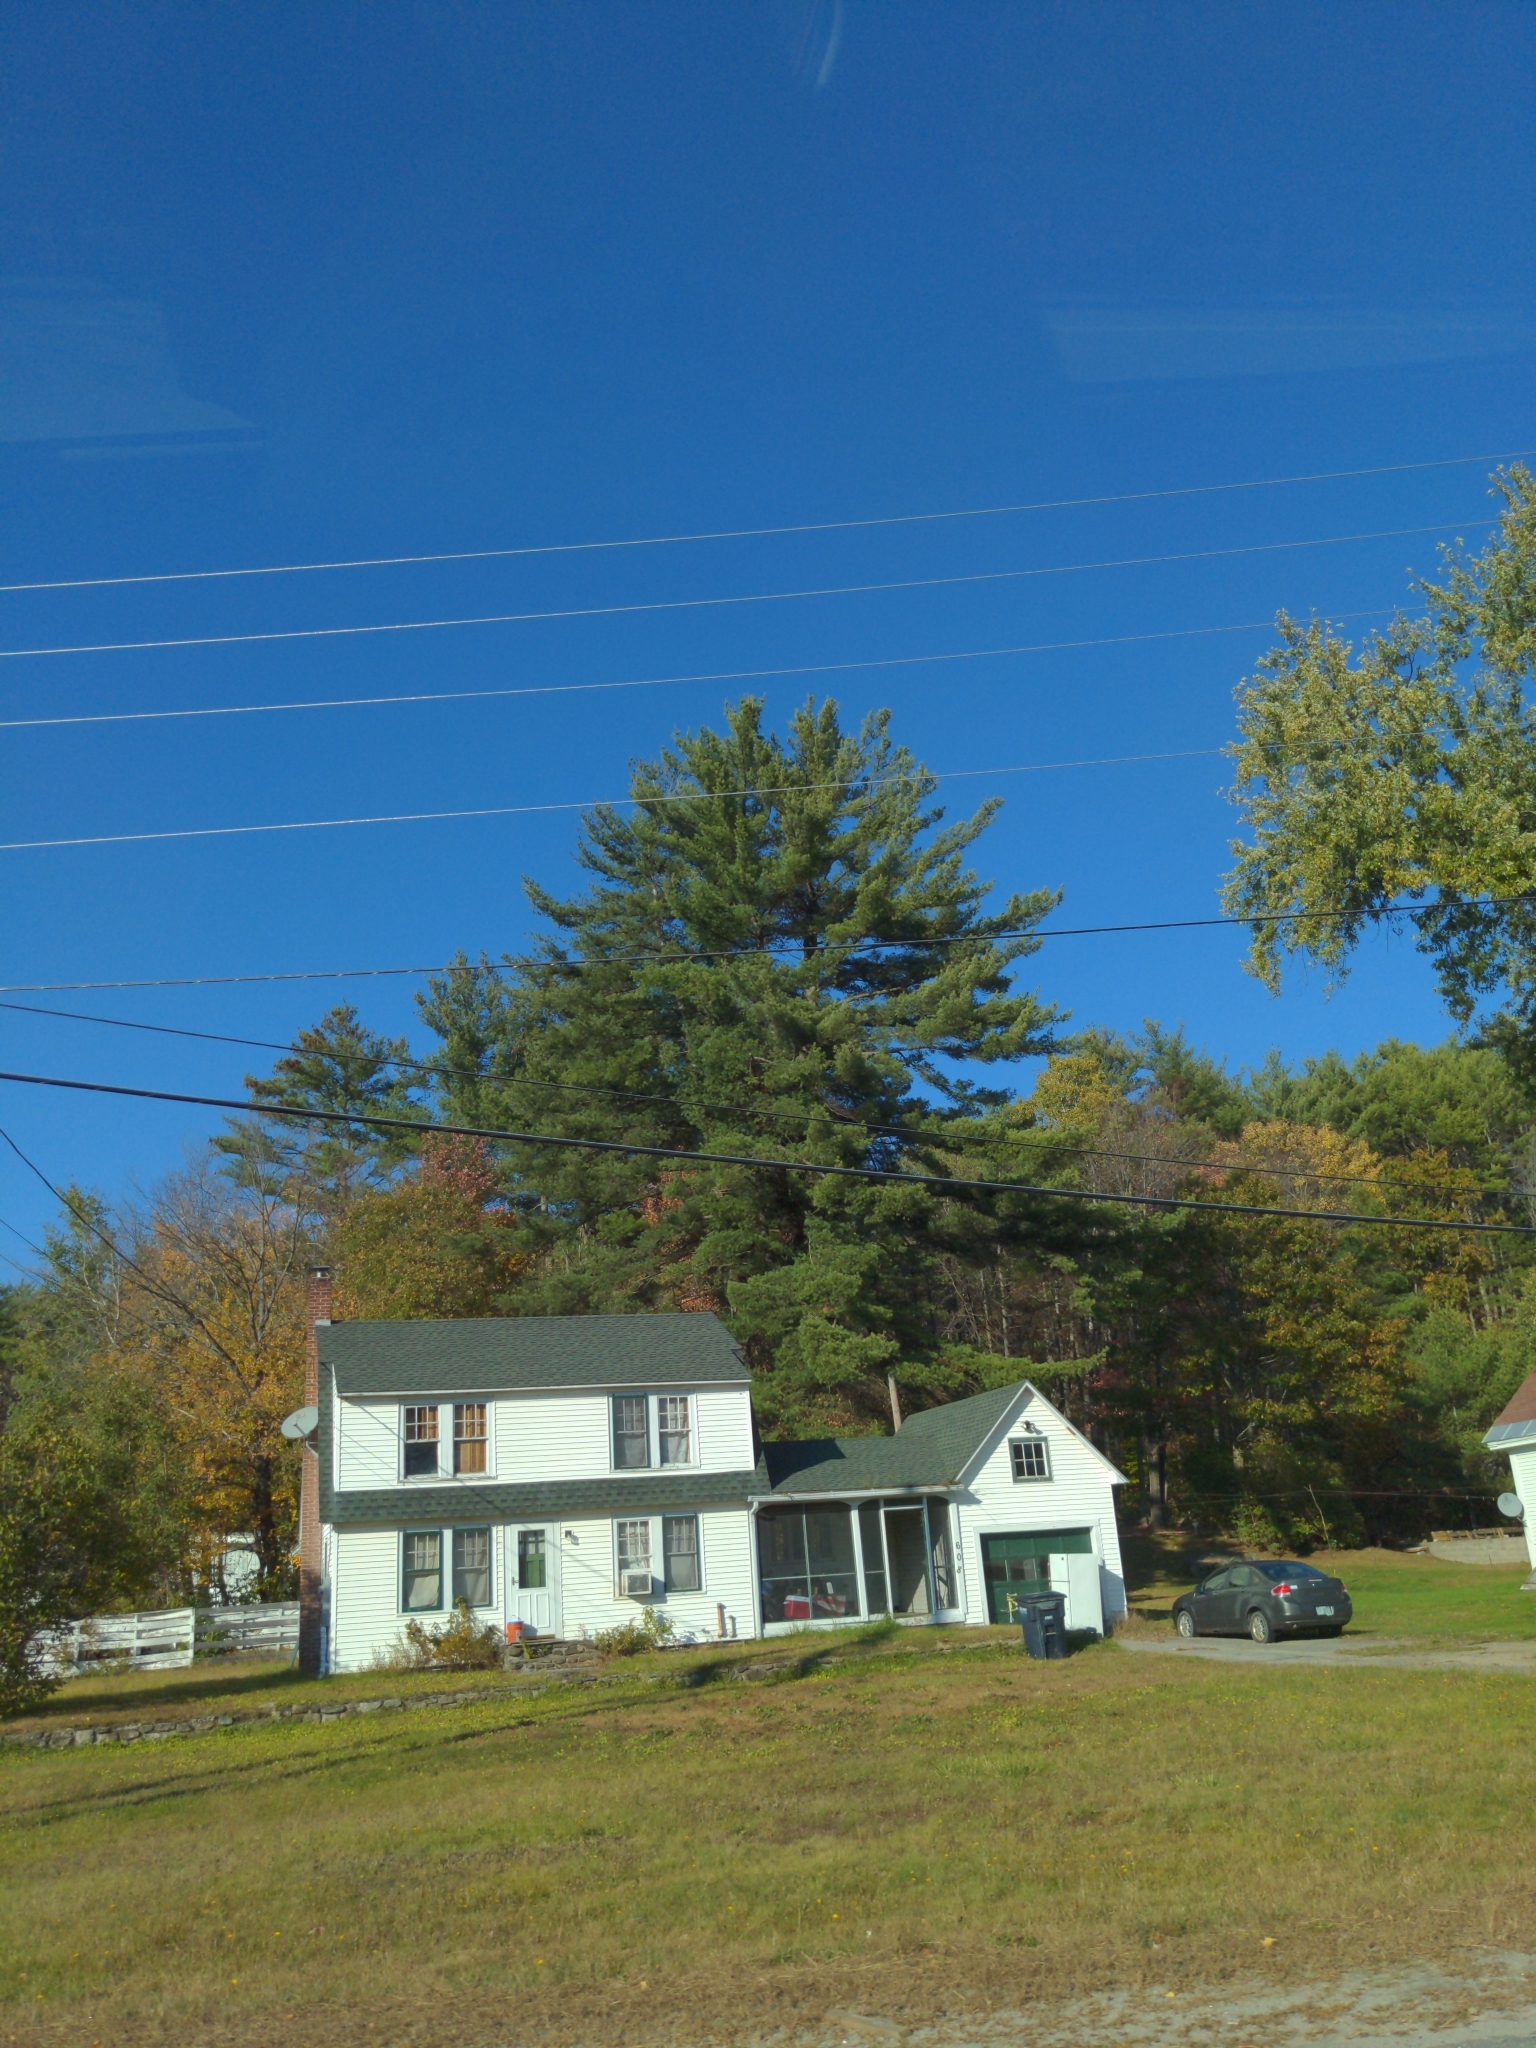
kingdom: Plantae
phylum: Tracheophyta
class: Pinopsida
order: Pinales
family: Pinaceae
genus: Pinus
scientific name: Pinus strobus
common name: Weymouth pine
